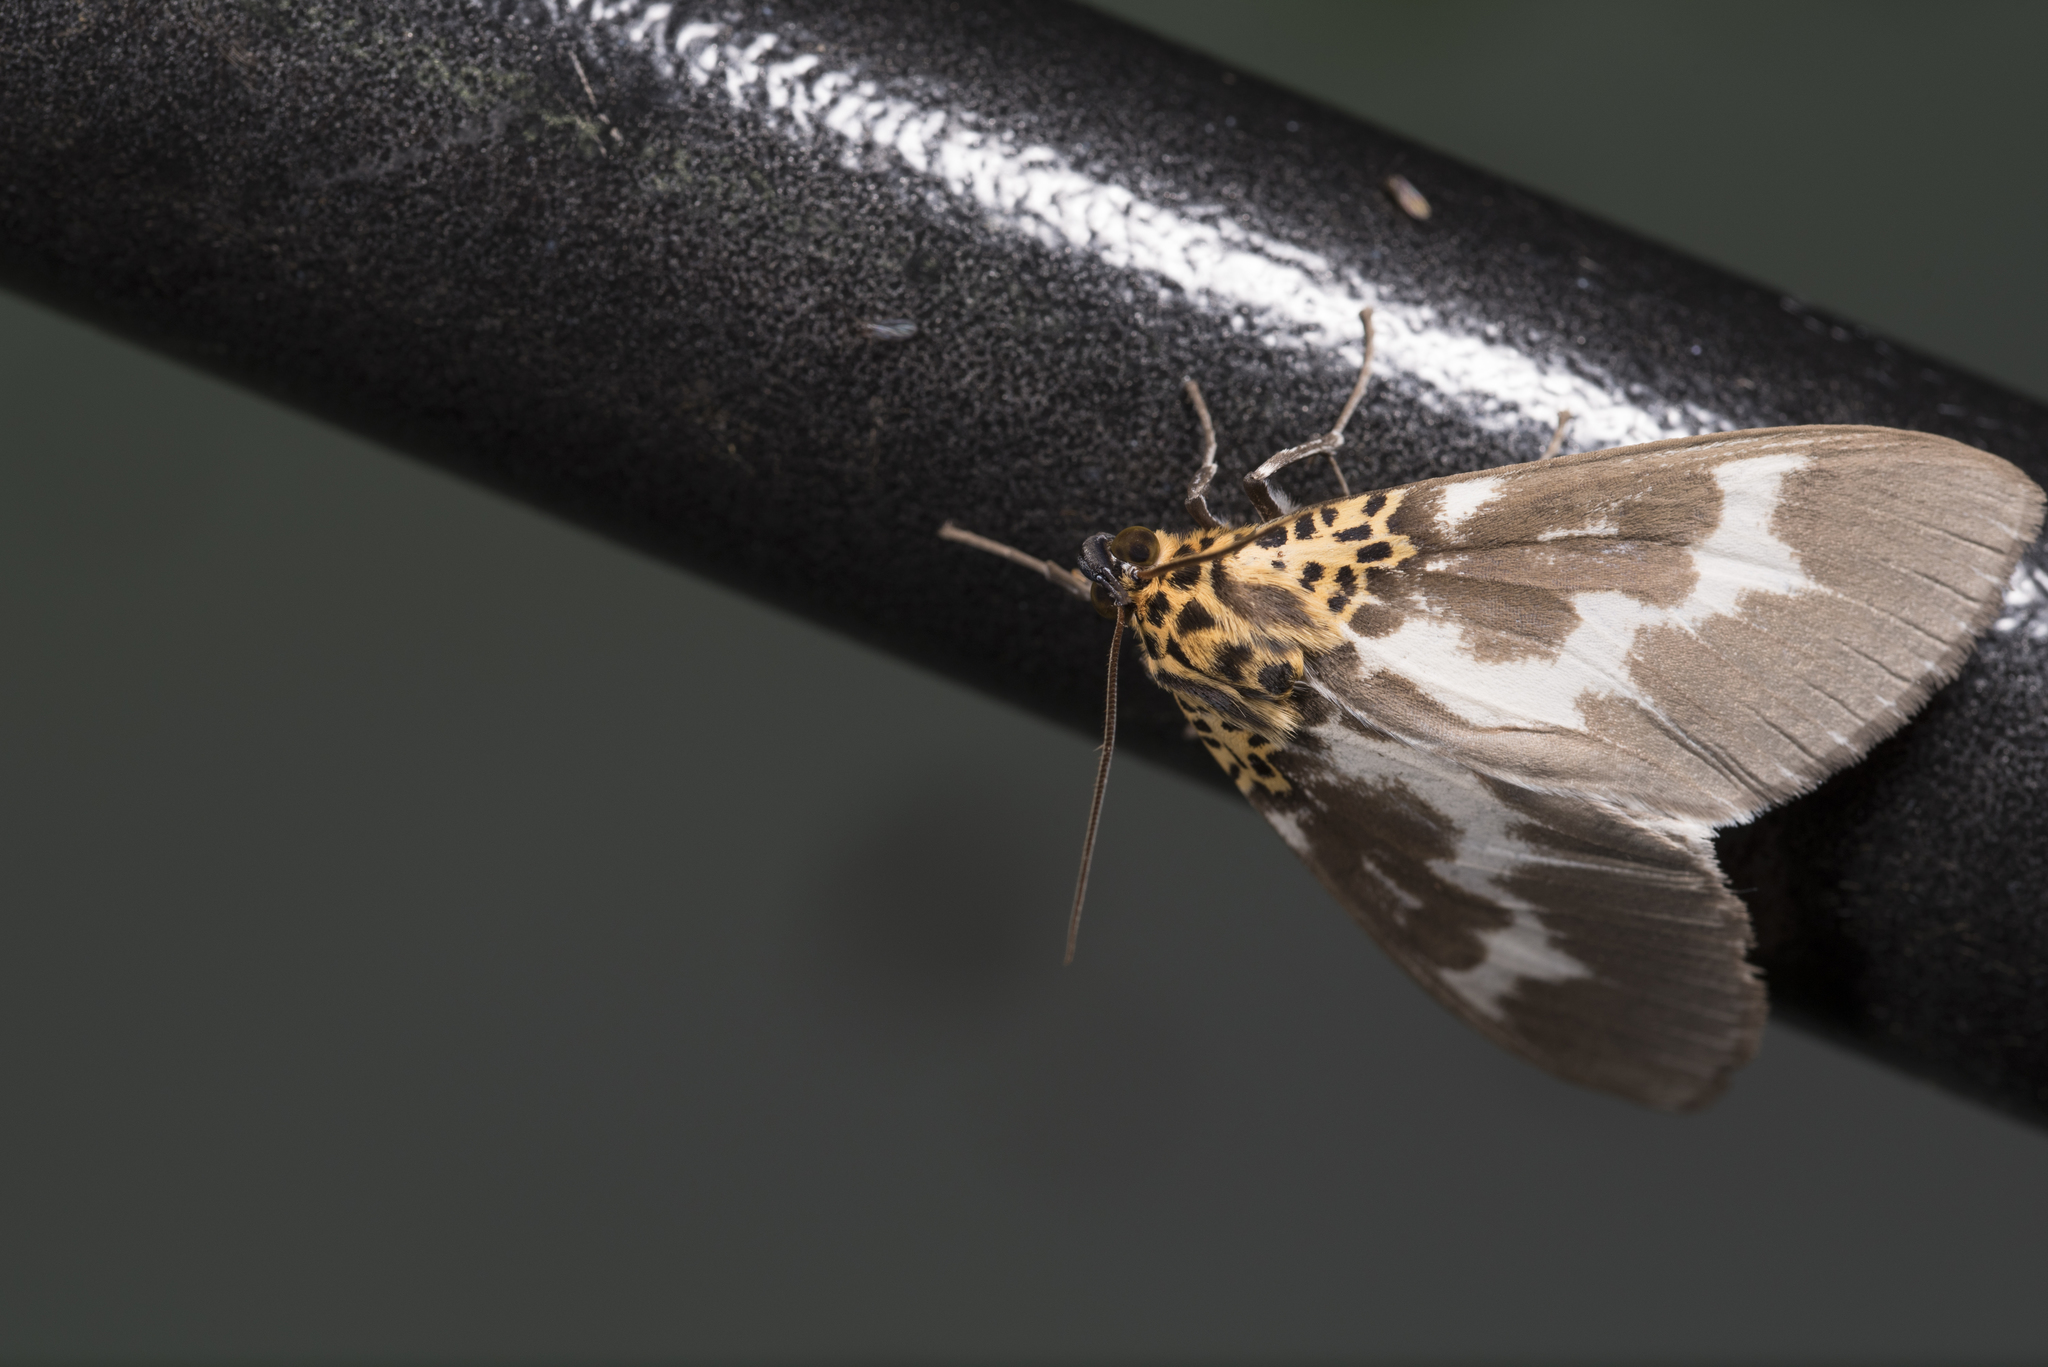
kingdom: Animalia
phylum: Arthropoda
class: Insecta
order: Lepidoptera
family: Erebidae
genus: Asota
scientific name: Asota tortuosa
